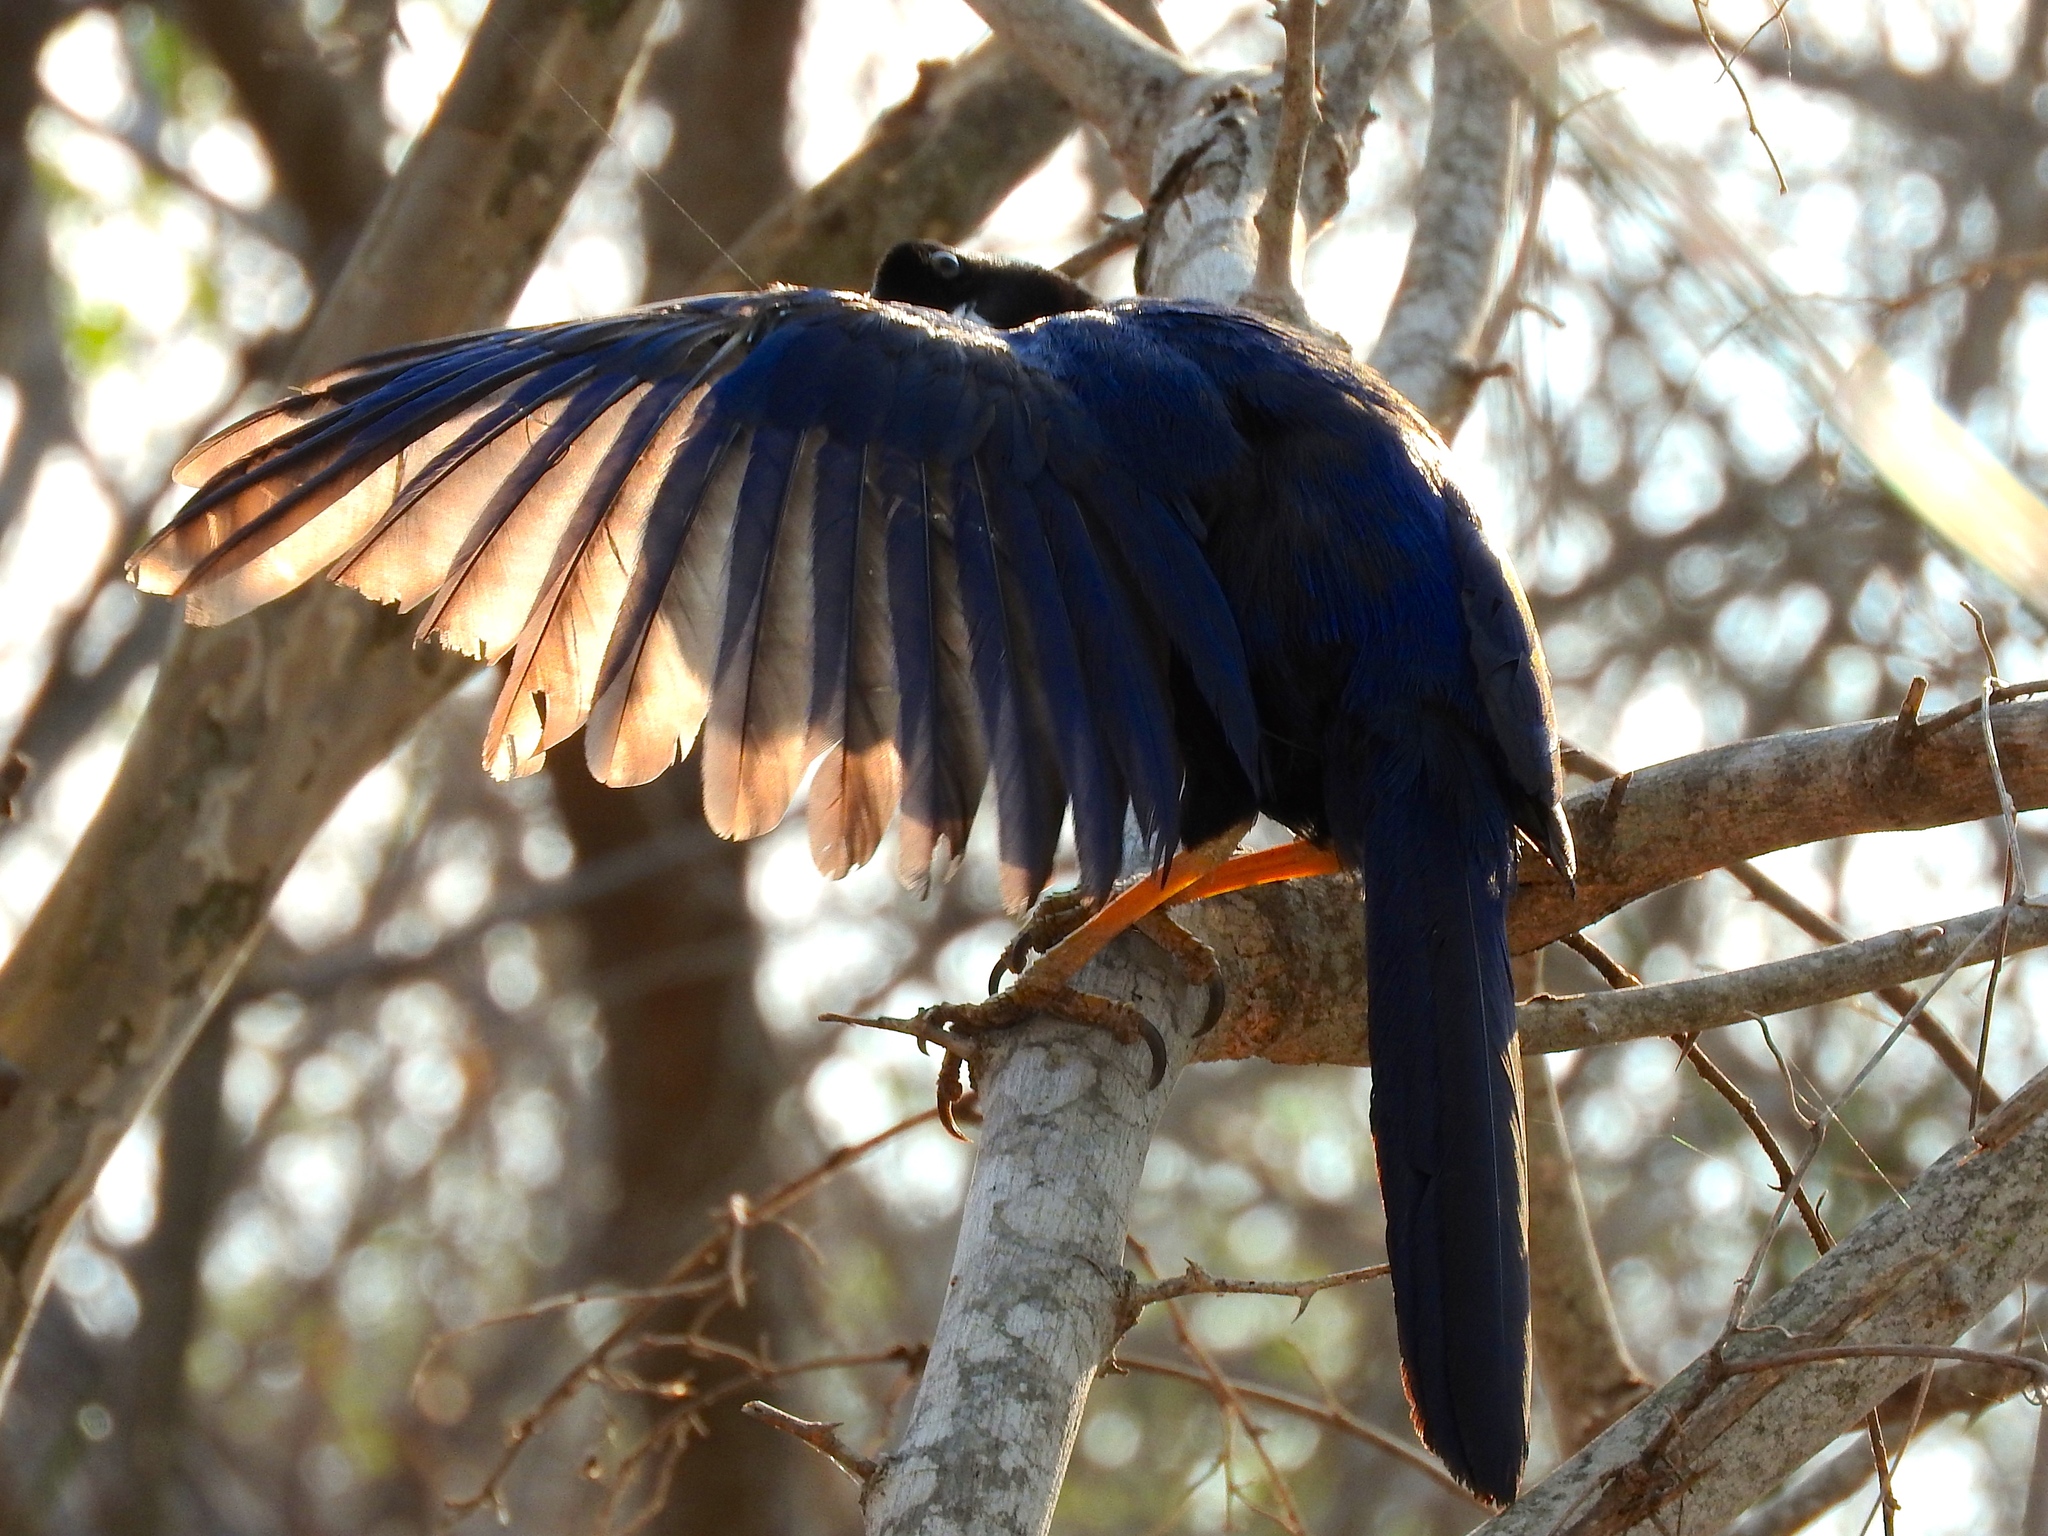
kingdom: Animalia
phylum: Chordata
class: Aves
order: Passeriformes
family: Corvidae
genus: Cyanocorax
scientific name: Cyanocorax beecheii
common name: Purplish-backed jay
